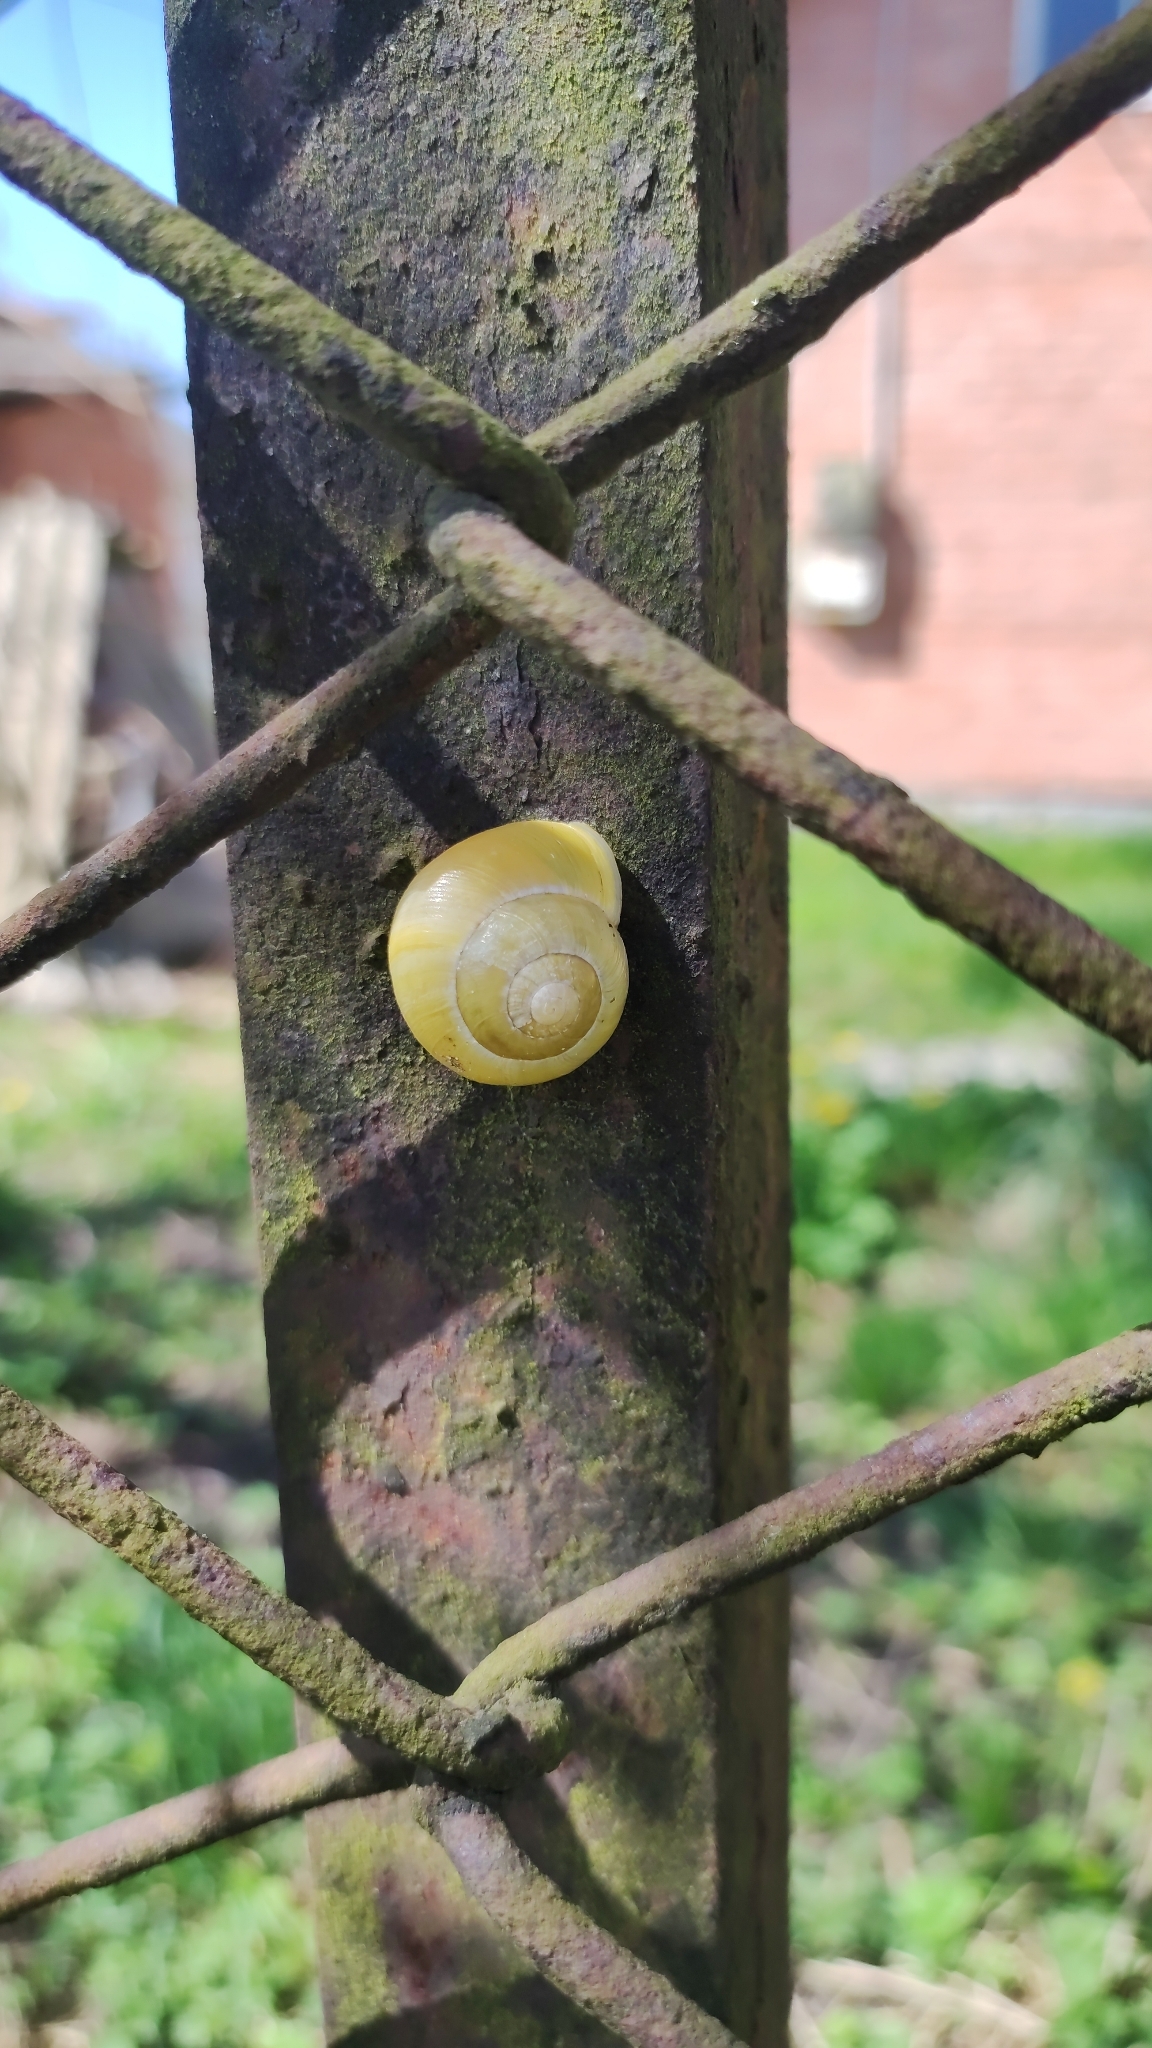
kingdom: Animalia
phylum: Mollusca
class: Gastropoda
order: Stylommatophora
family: Helicidae
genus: Cepaea
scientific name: Cepaea hortensis
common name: White-lip gardensnail
